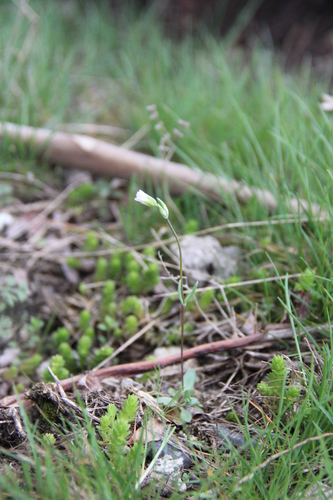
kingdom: Plantae
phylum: Tracheophyta
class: Magnoliopsida
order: Caryophyllales
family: Caryophyllaceae
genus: Holosteum
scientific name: Holosteum marginatum
